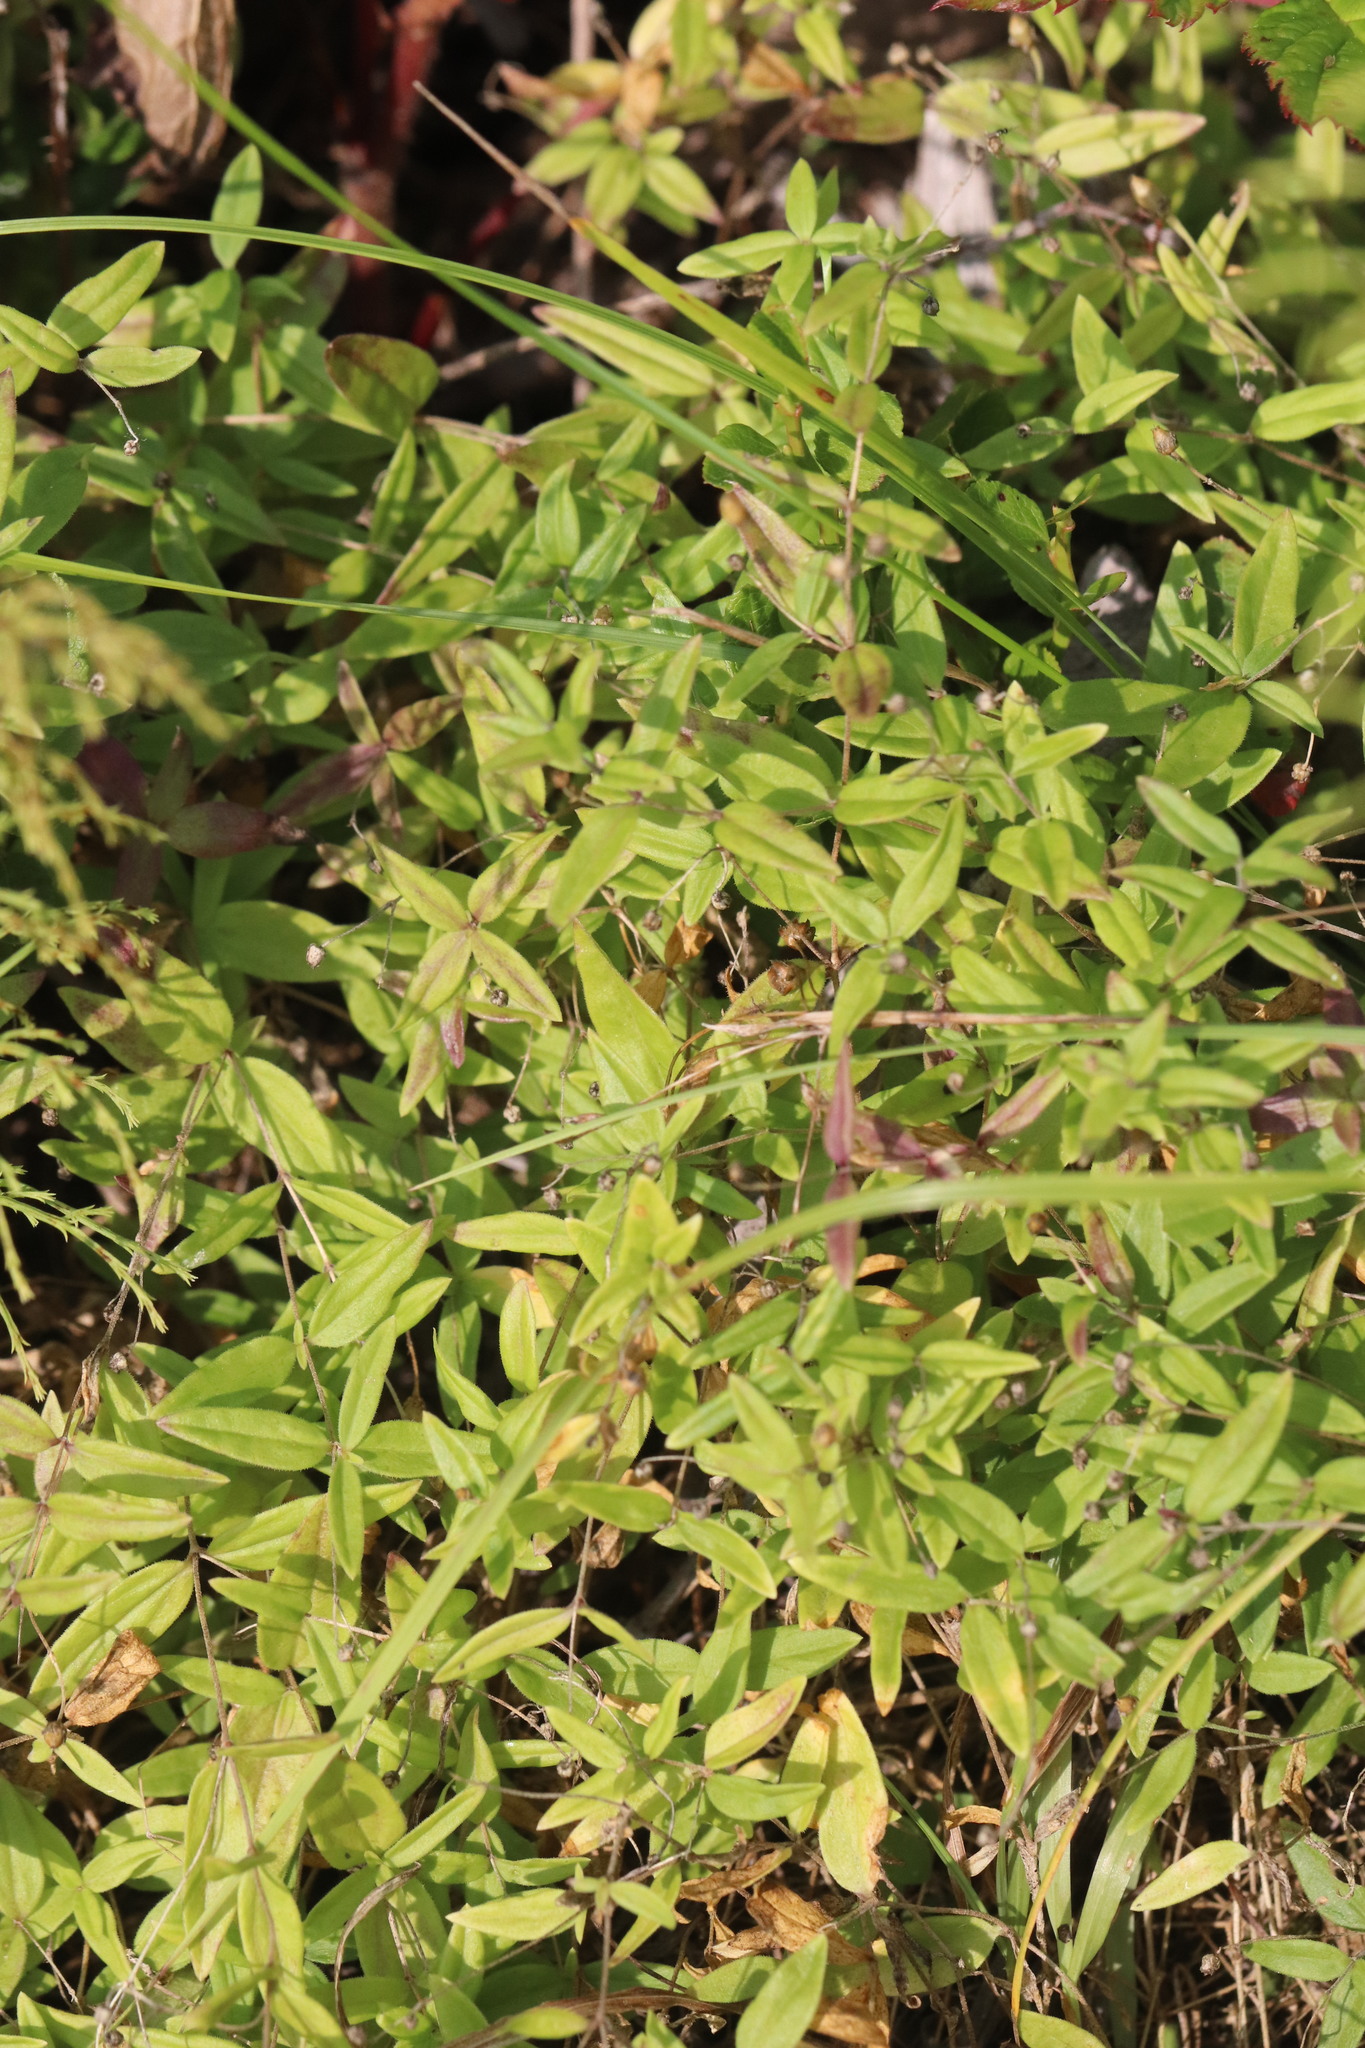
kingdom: Plantae
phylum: Tracheophyta
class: Magnoliopsida
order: Caryophyllales
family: Caryophyllaceae
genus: Moehringia
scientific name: Moehringia lateriflora
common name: Blunt-leaved sandwort
